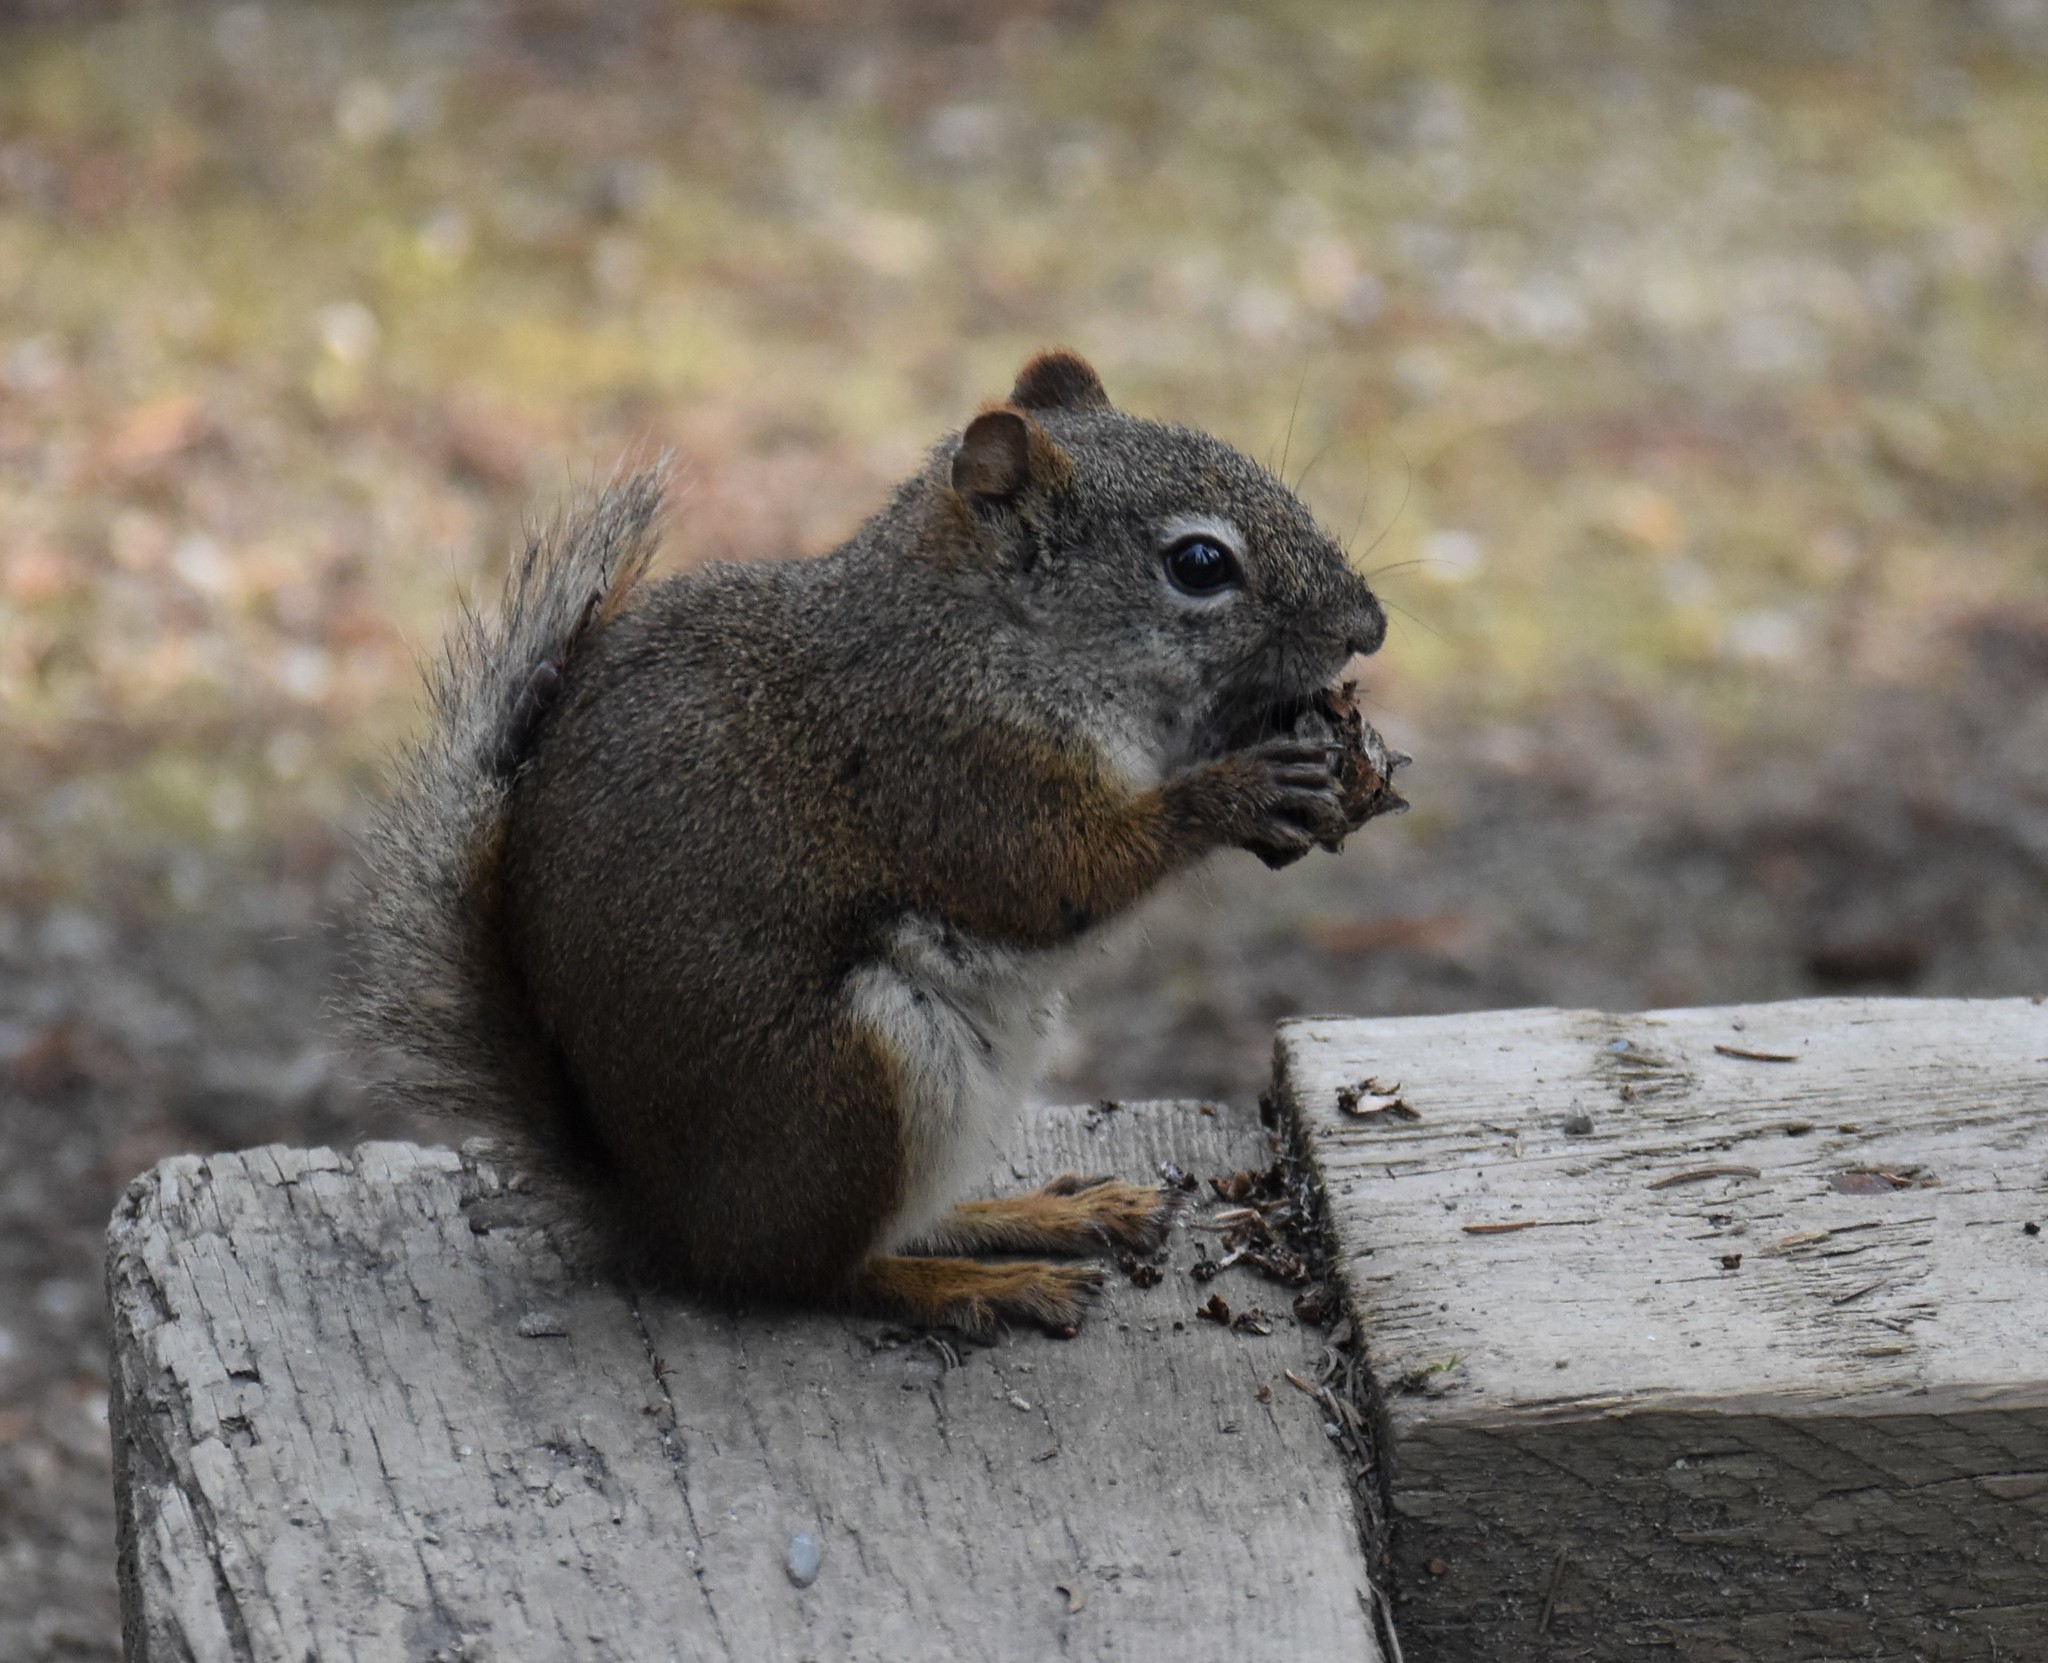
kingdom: Animalia
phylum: Chordata
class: Mammalia
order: Rodentia
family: Sciuridae
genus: Tamiasciurus
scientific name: Tamiasciurus hudsonicus
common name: Red squirrel
